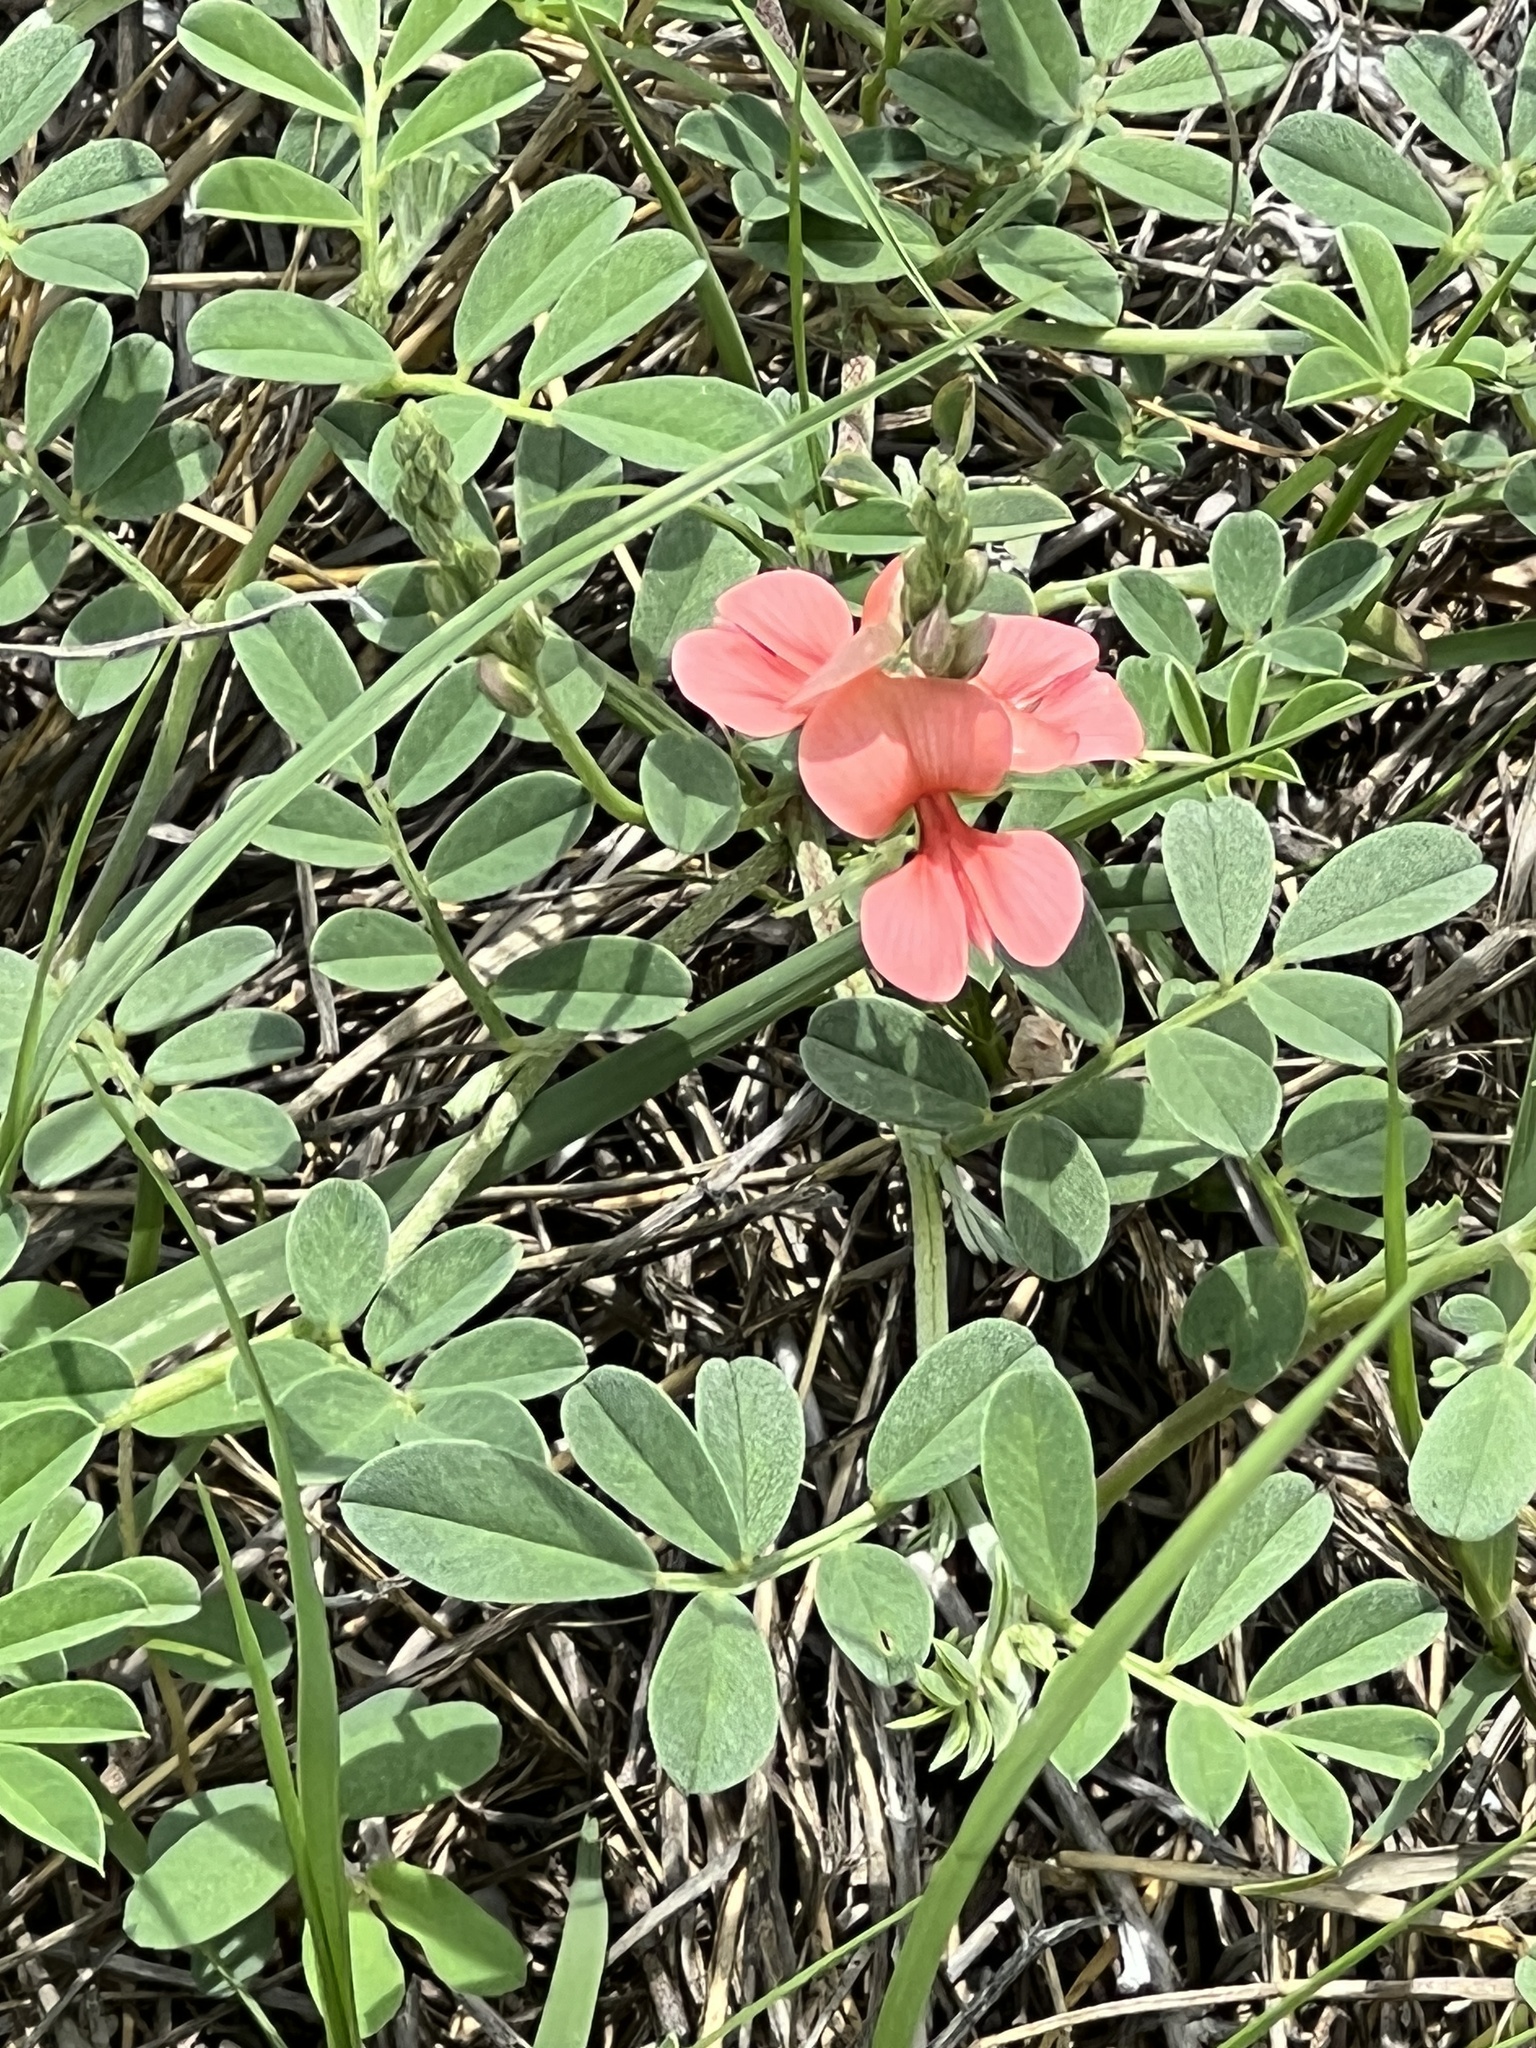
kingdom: Plantae
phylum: Tracheophyta
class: Magnoliopsida
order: Fabales
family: Fabaceae
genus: Indigofera
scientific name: Indigofera miniata
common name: Coast indigo
